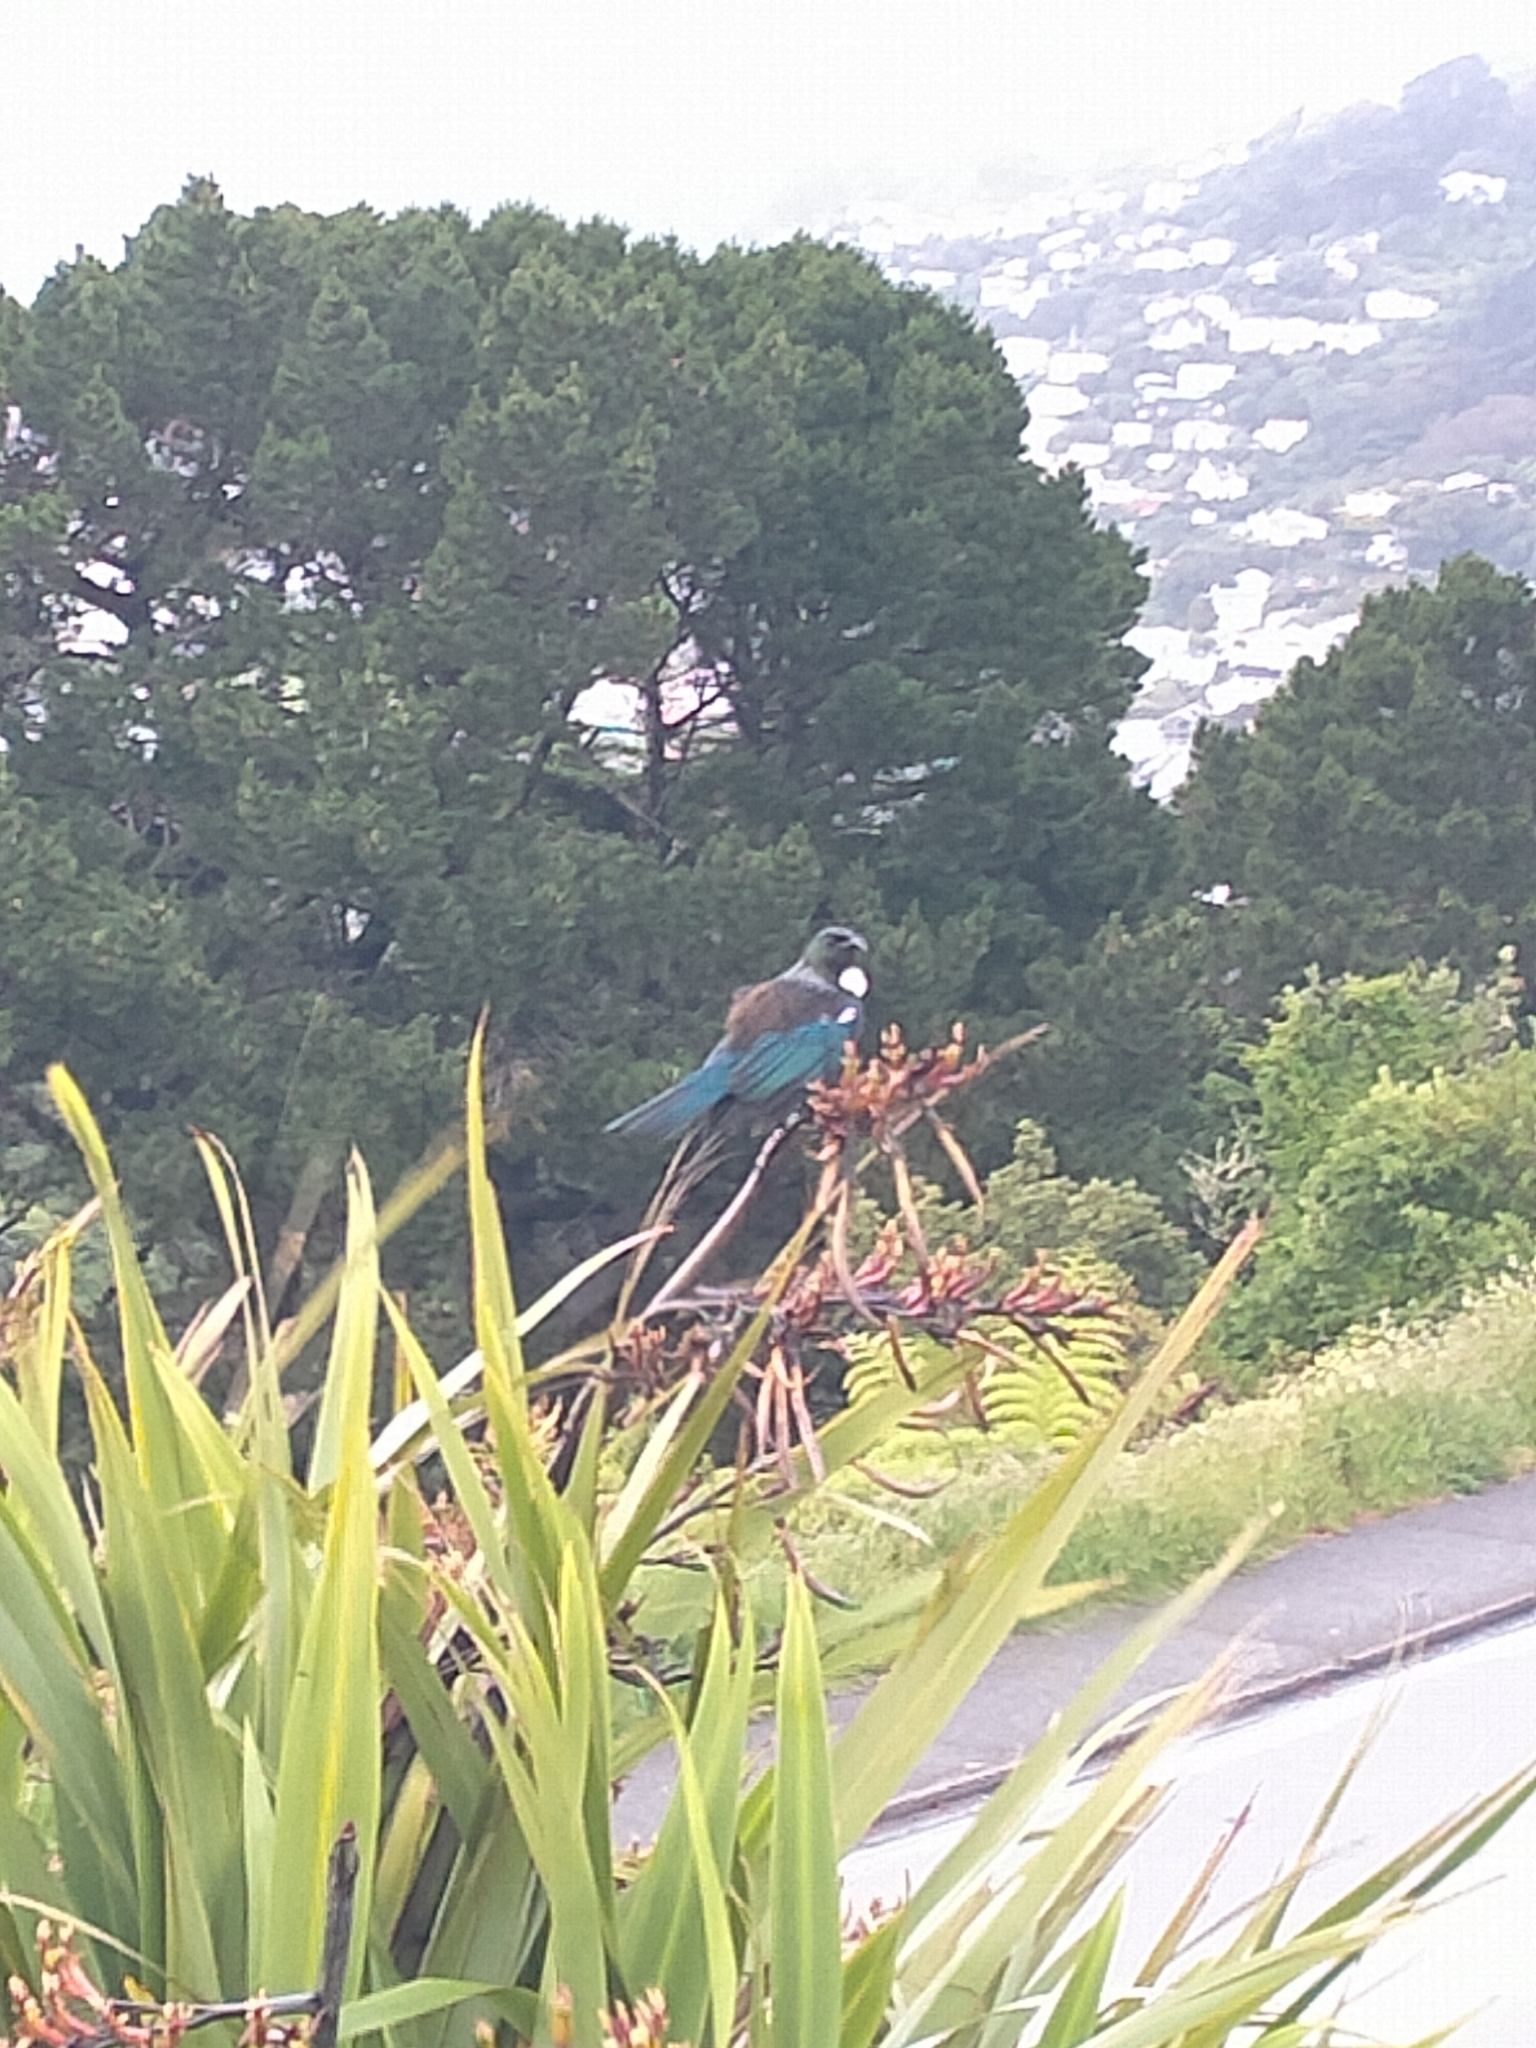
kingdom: Animalia
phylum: Chordata
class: Aves
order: Passeriformes
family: Meliphagidae
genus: Prosthemadera
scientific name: Prosthemadera novaeseelandiae
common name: Tui
